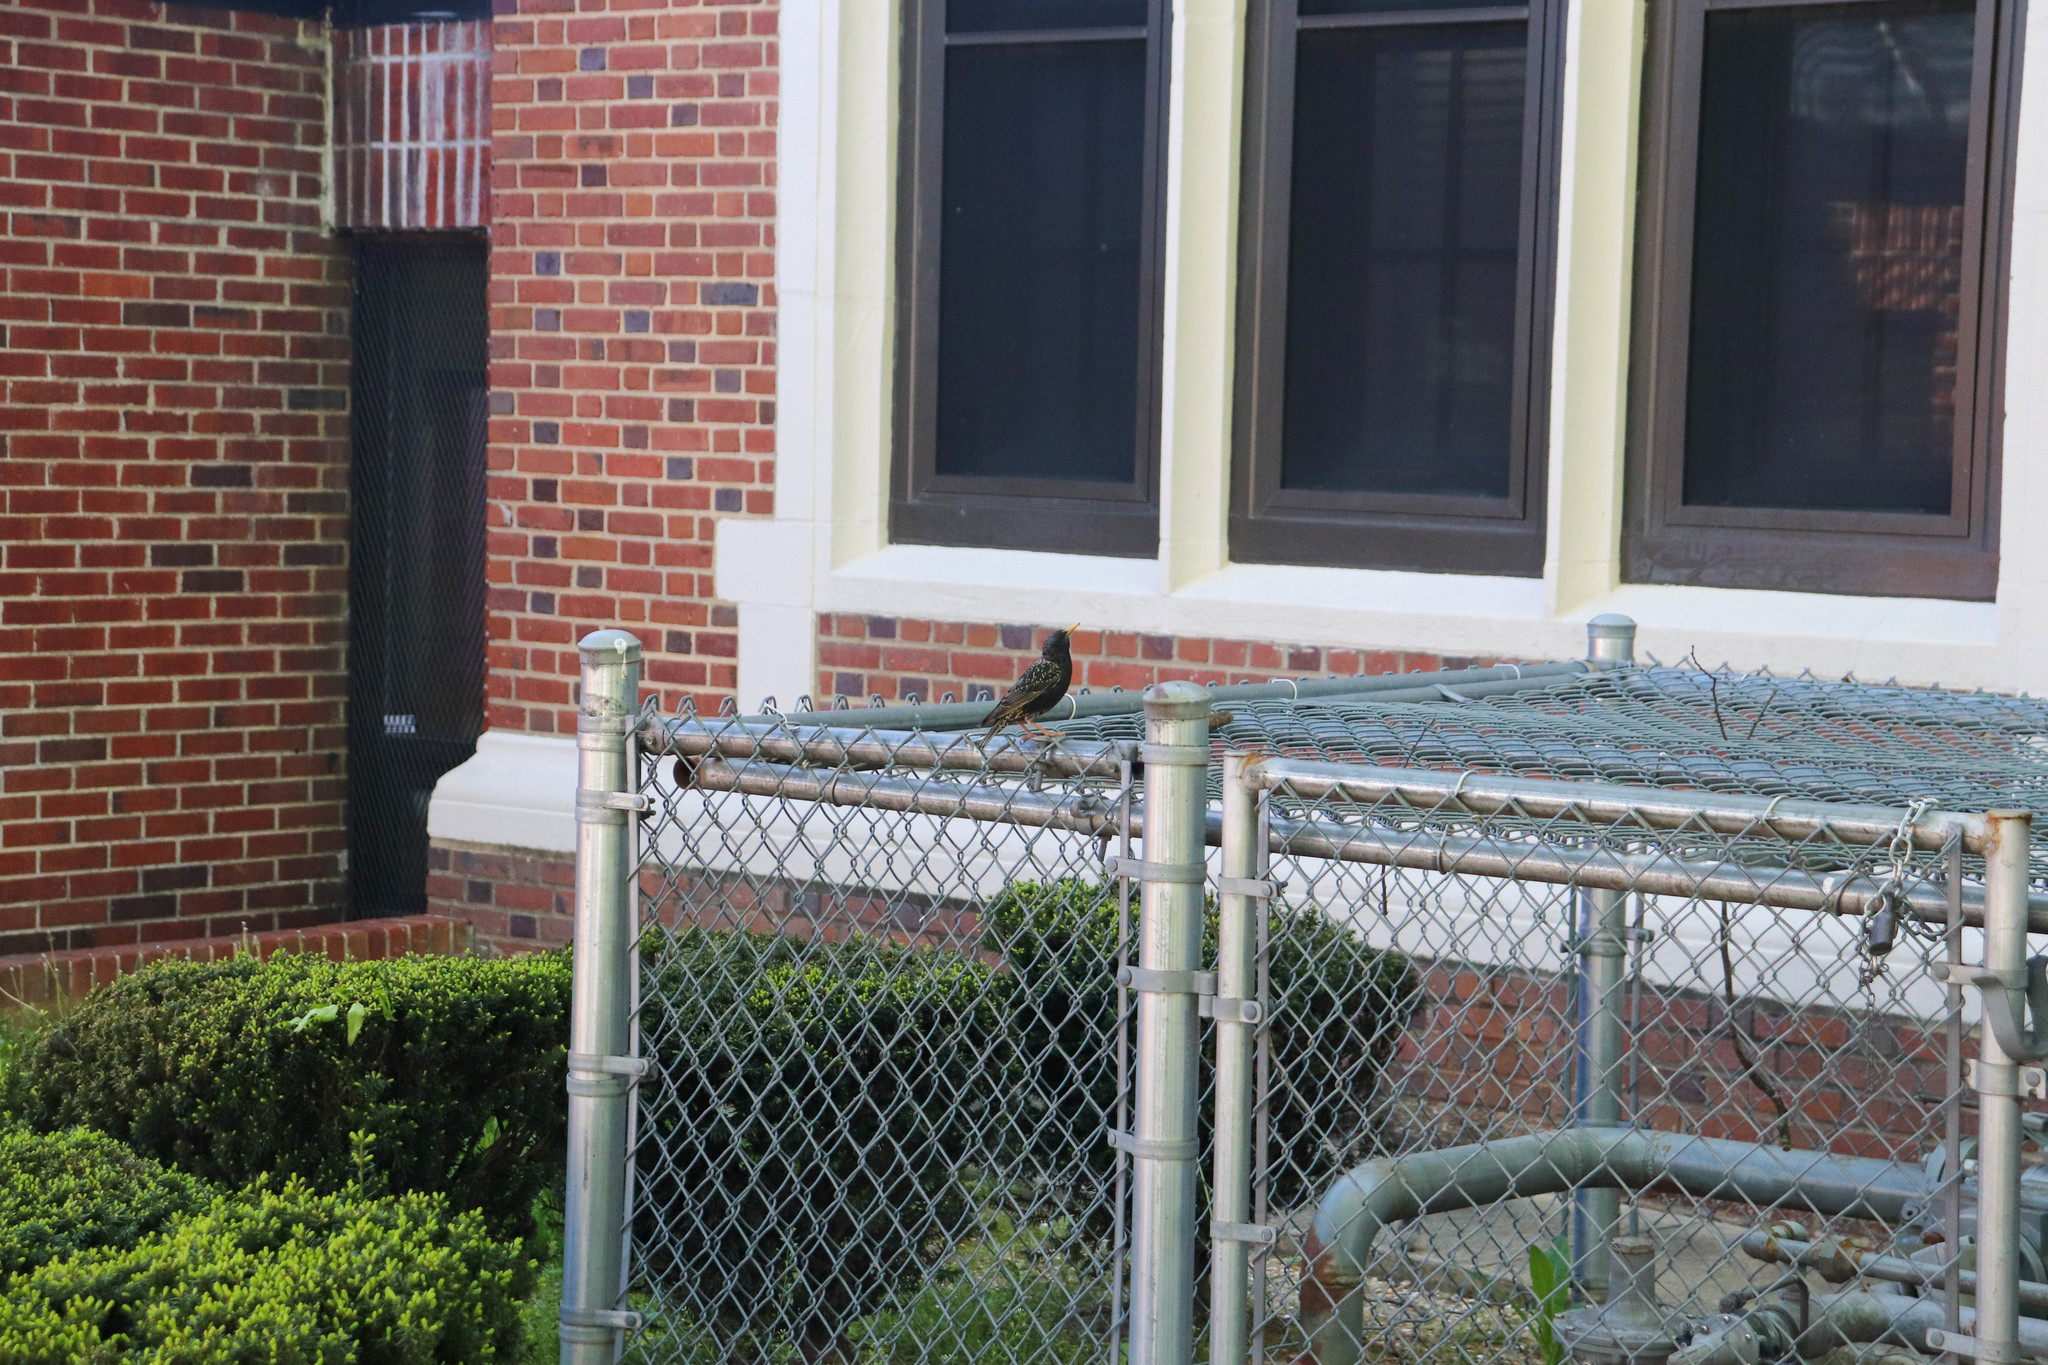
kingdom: Animalia
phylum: Chordata
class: Aves
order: Passeriformes
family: Sturnidae
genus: Sturnus
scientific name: Sturnus vulgaris
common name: Common starling
